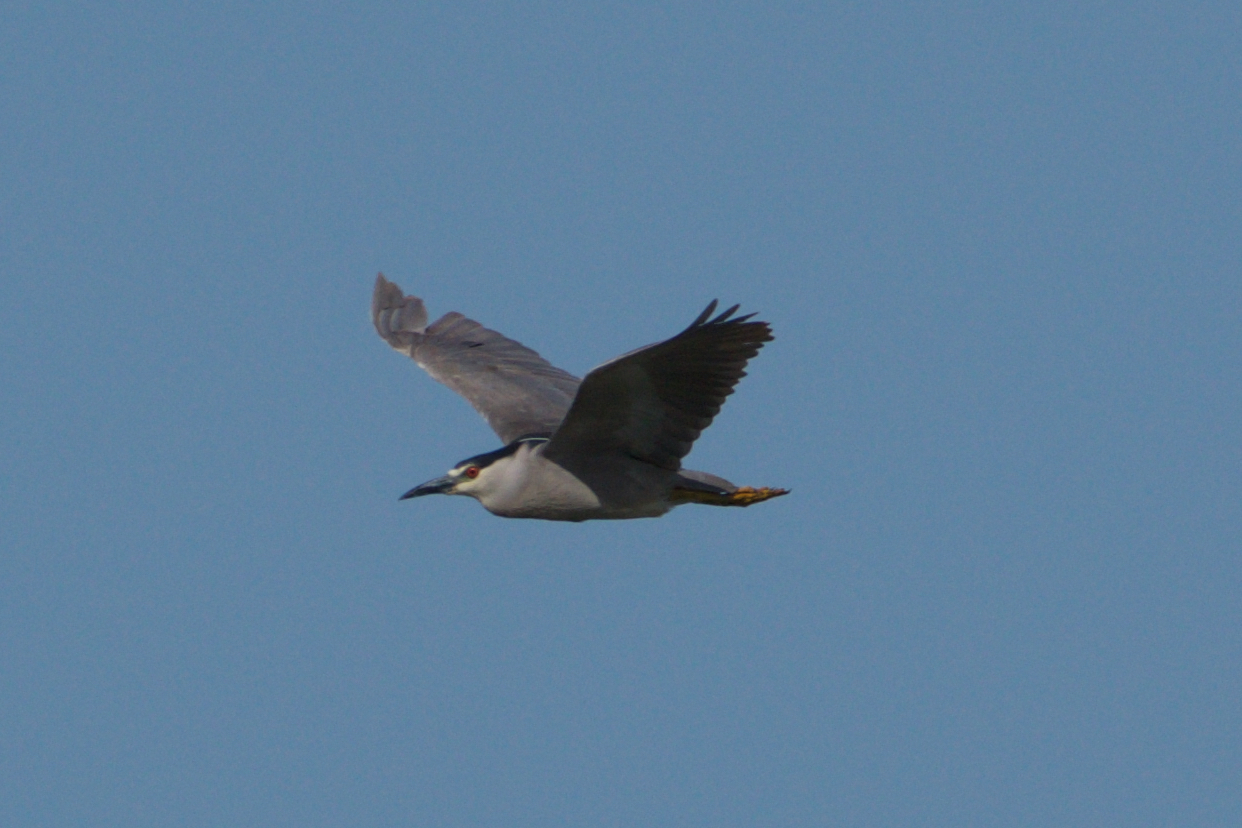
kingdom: Animalia
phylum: Chordata
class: Aves
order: Pelecaniformes
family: Ardeidae
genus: Nycticorax
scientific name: Nycticorax nycticorax
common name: Black-crowned night heron
